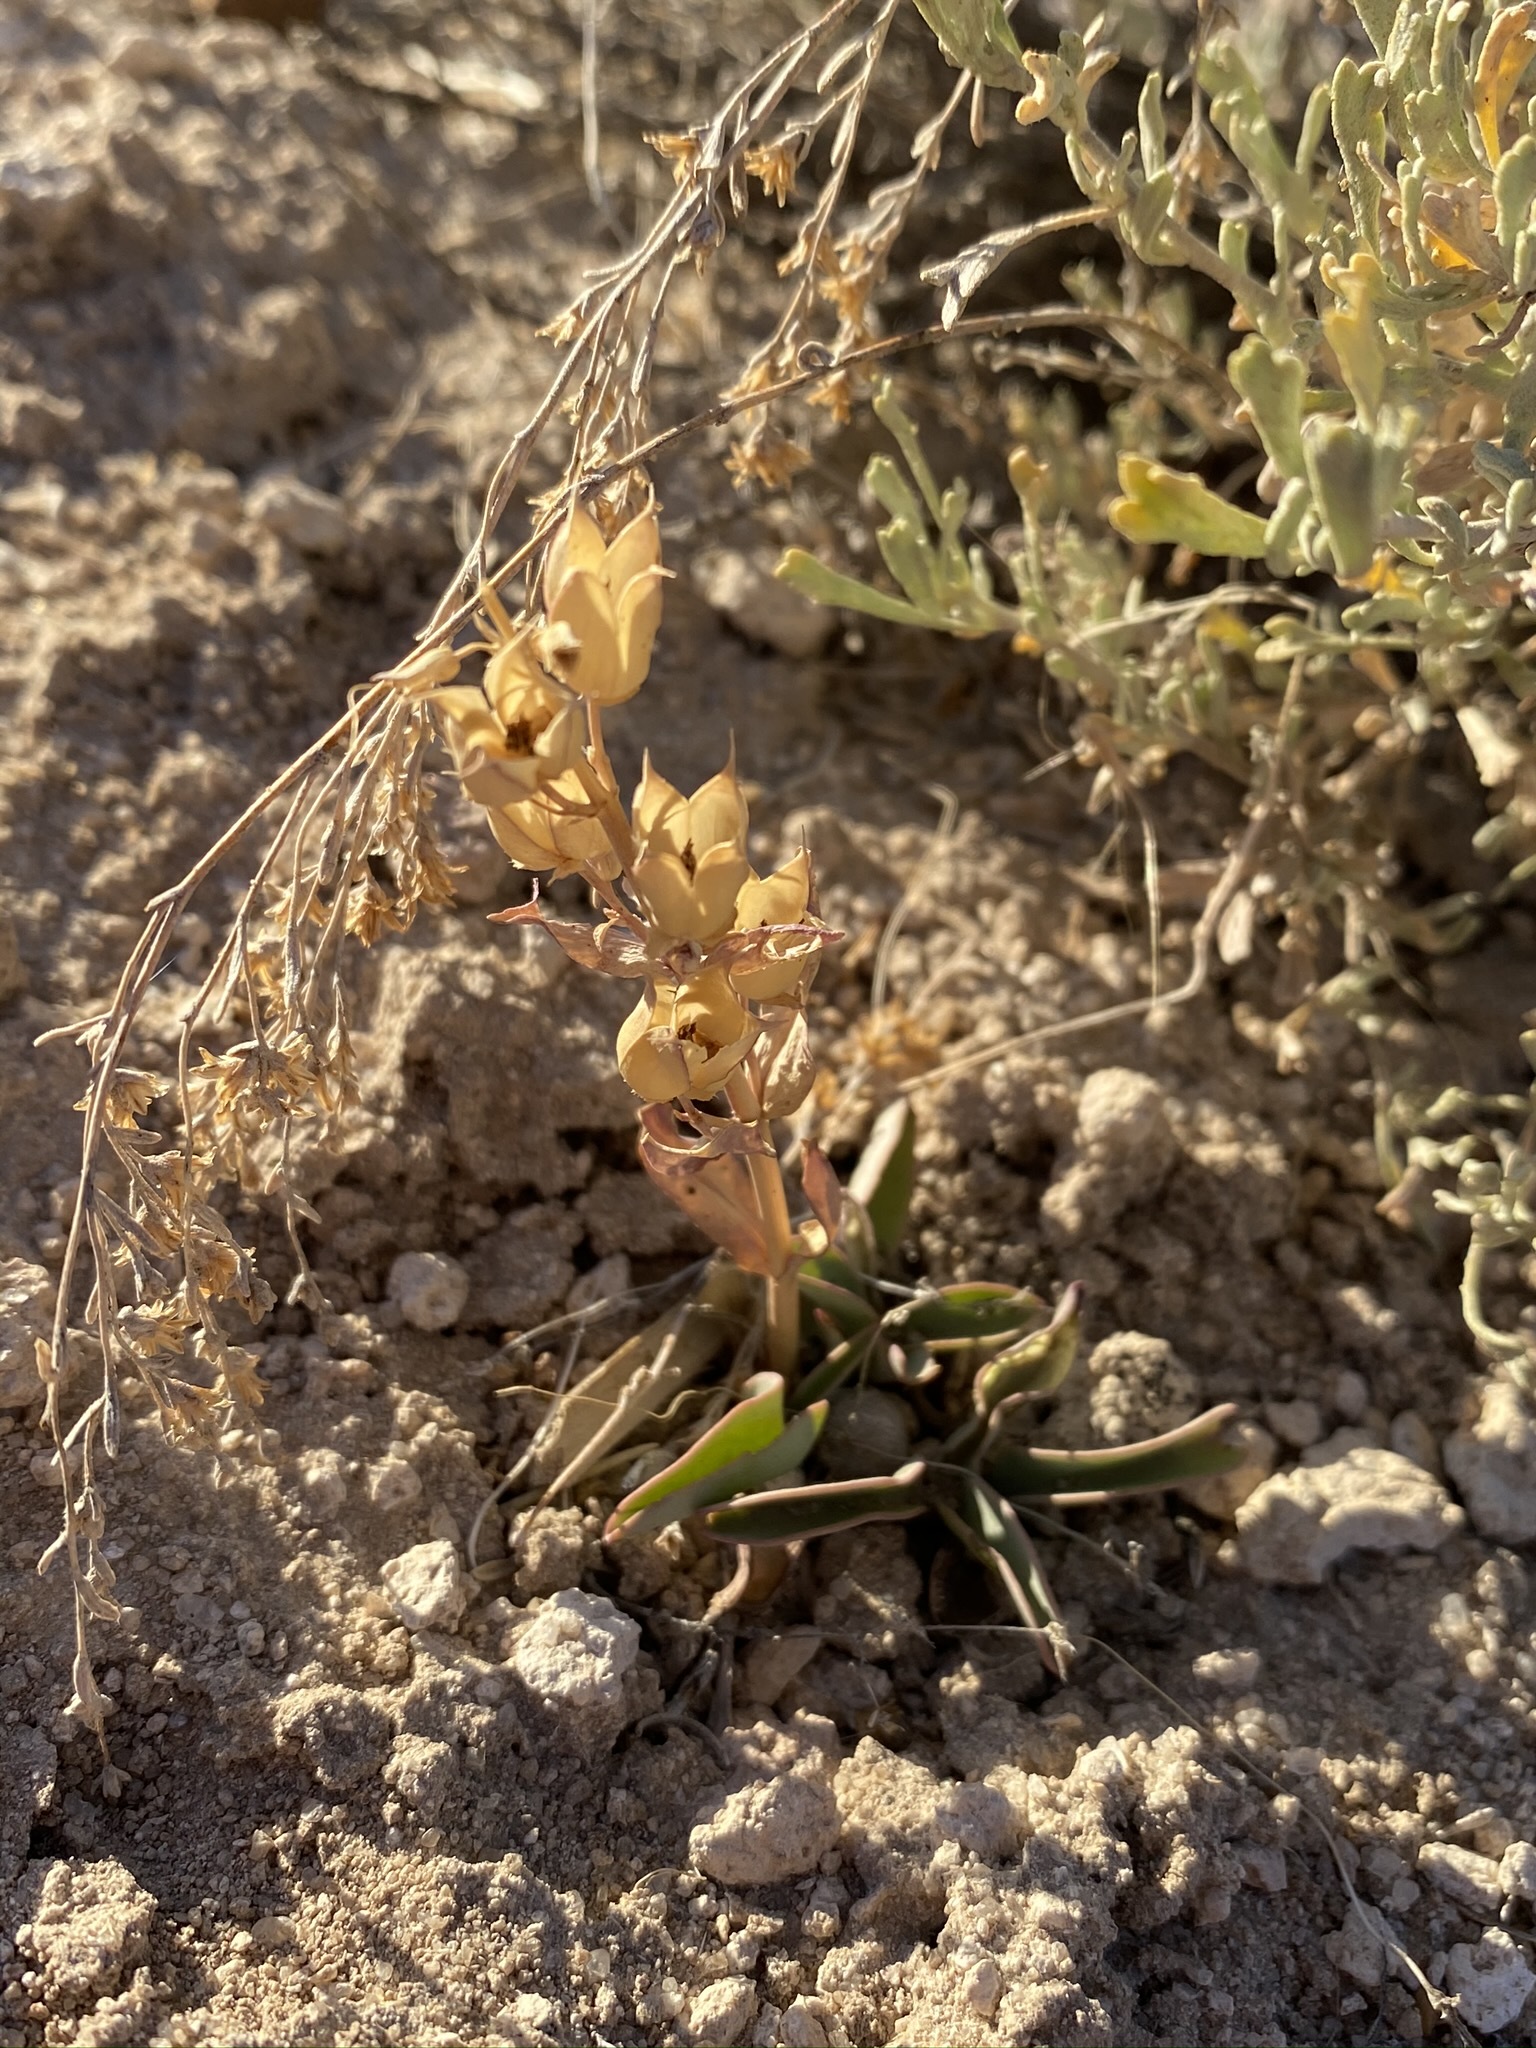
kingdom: Plantae
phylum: Tracheophyta
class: Magnoliopsida
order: Lamiales
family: Plantaginaceae
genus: Penstemon
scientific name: Penstemon confusus
